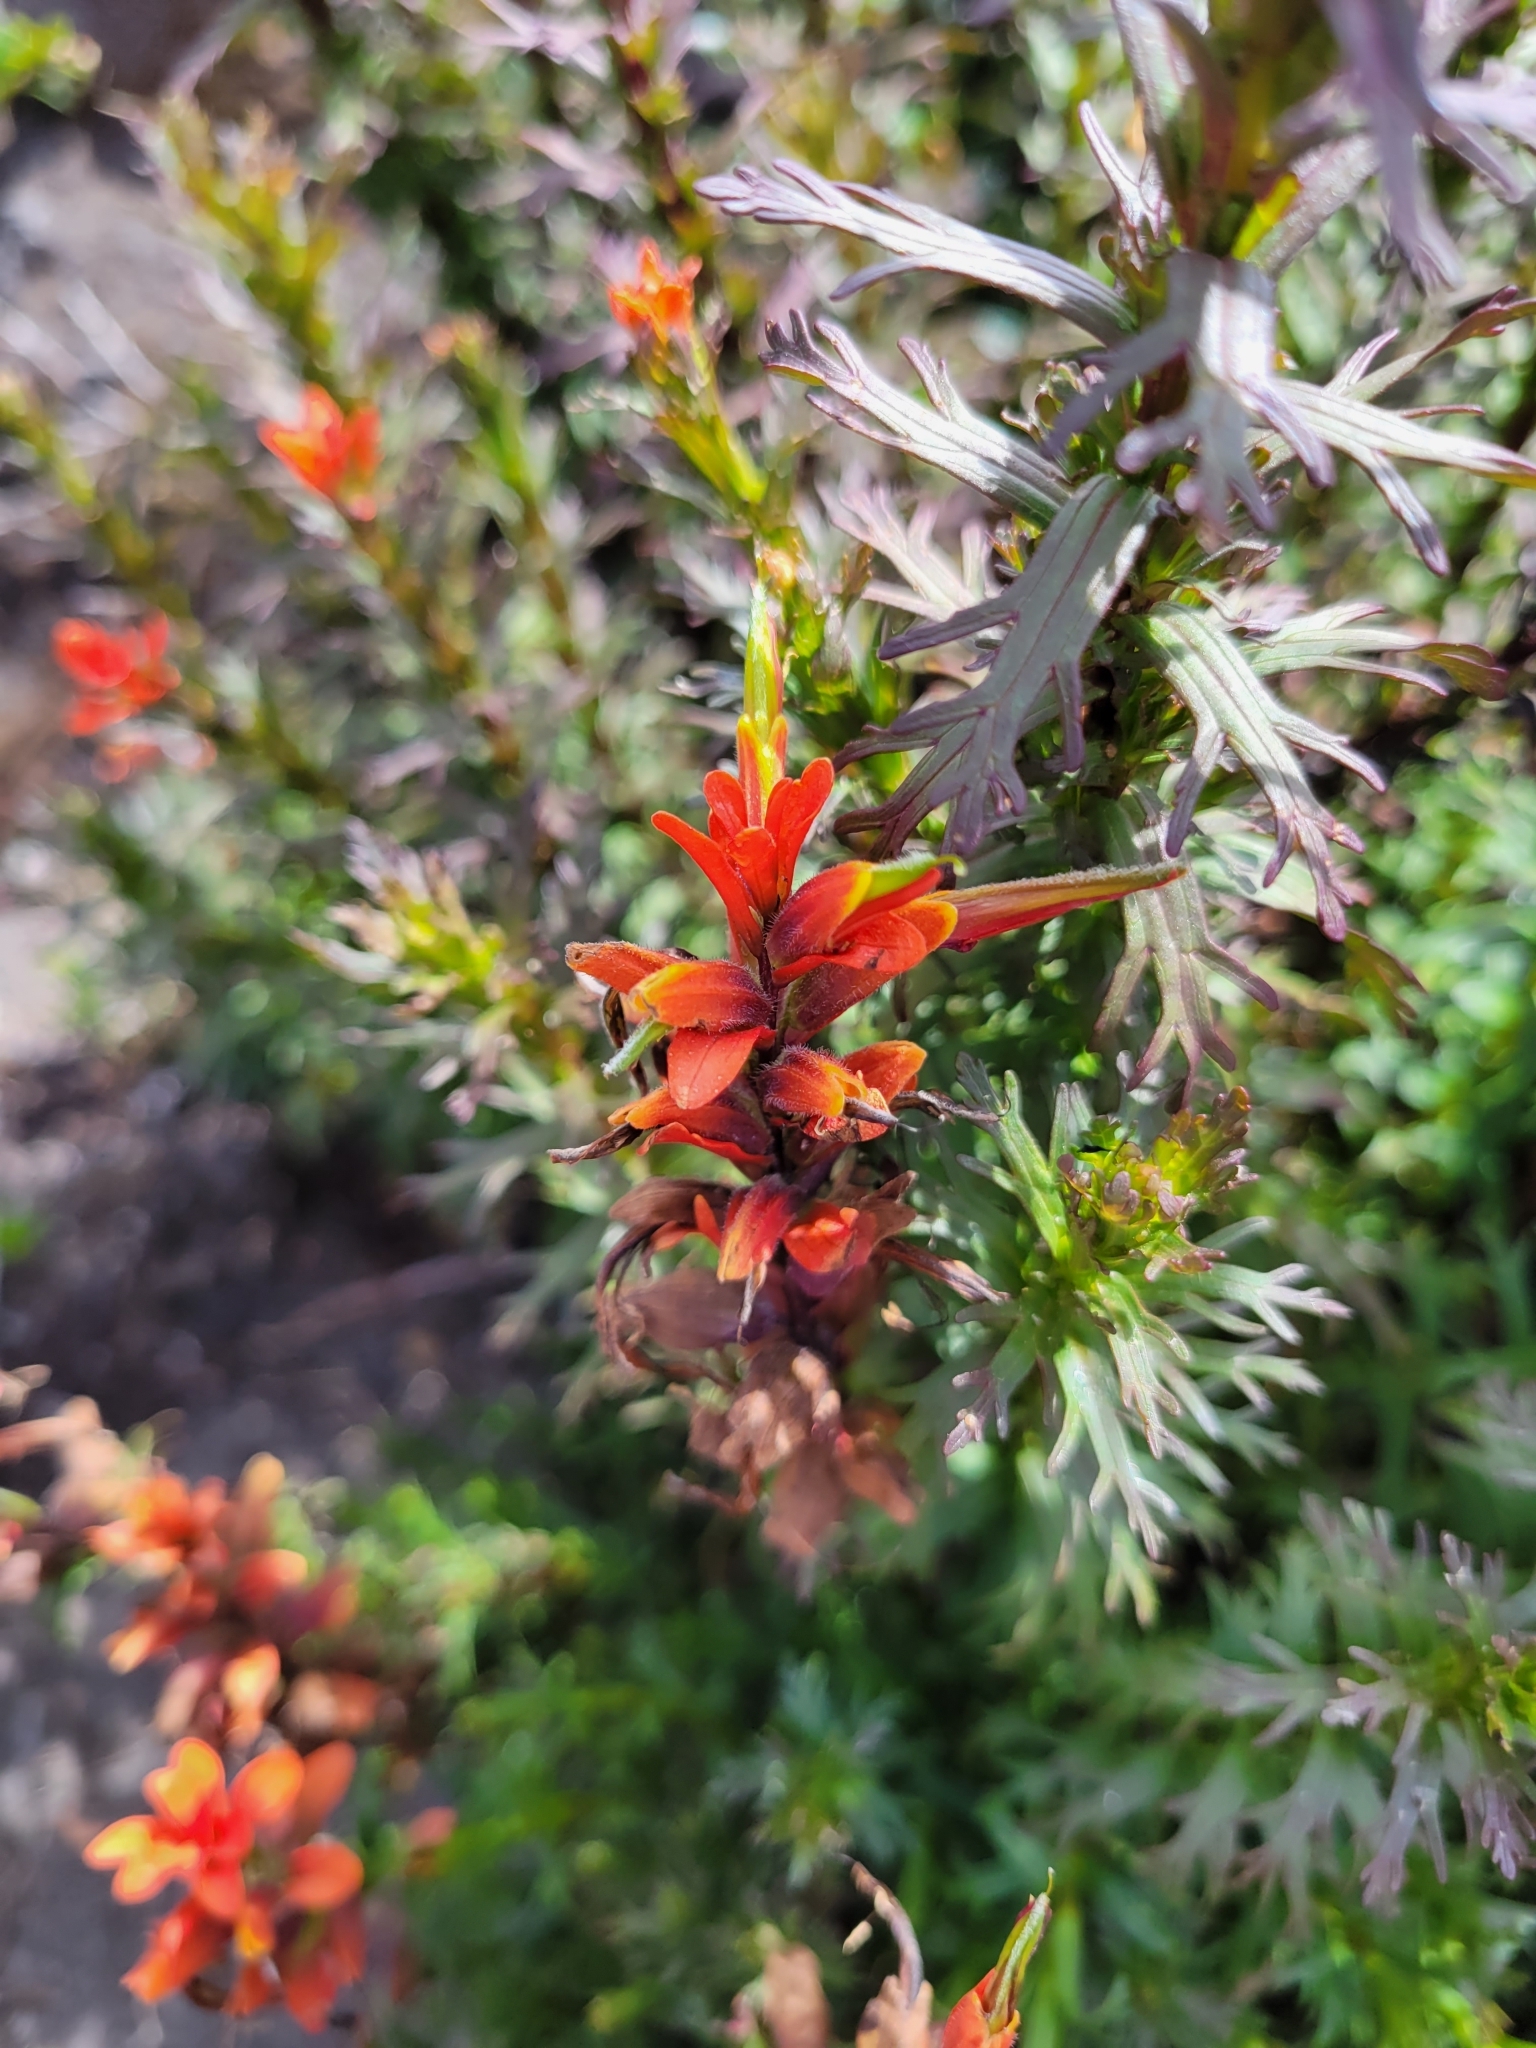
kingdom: Plantae
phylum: Tracheophyta
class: Magnoliopsida
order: Lamiales
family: Orobanchaceae
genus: Castilleja
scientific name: Castilleja irasuensis
